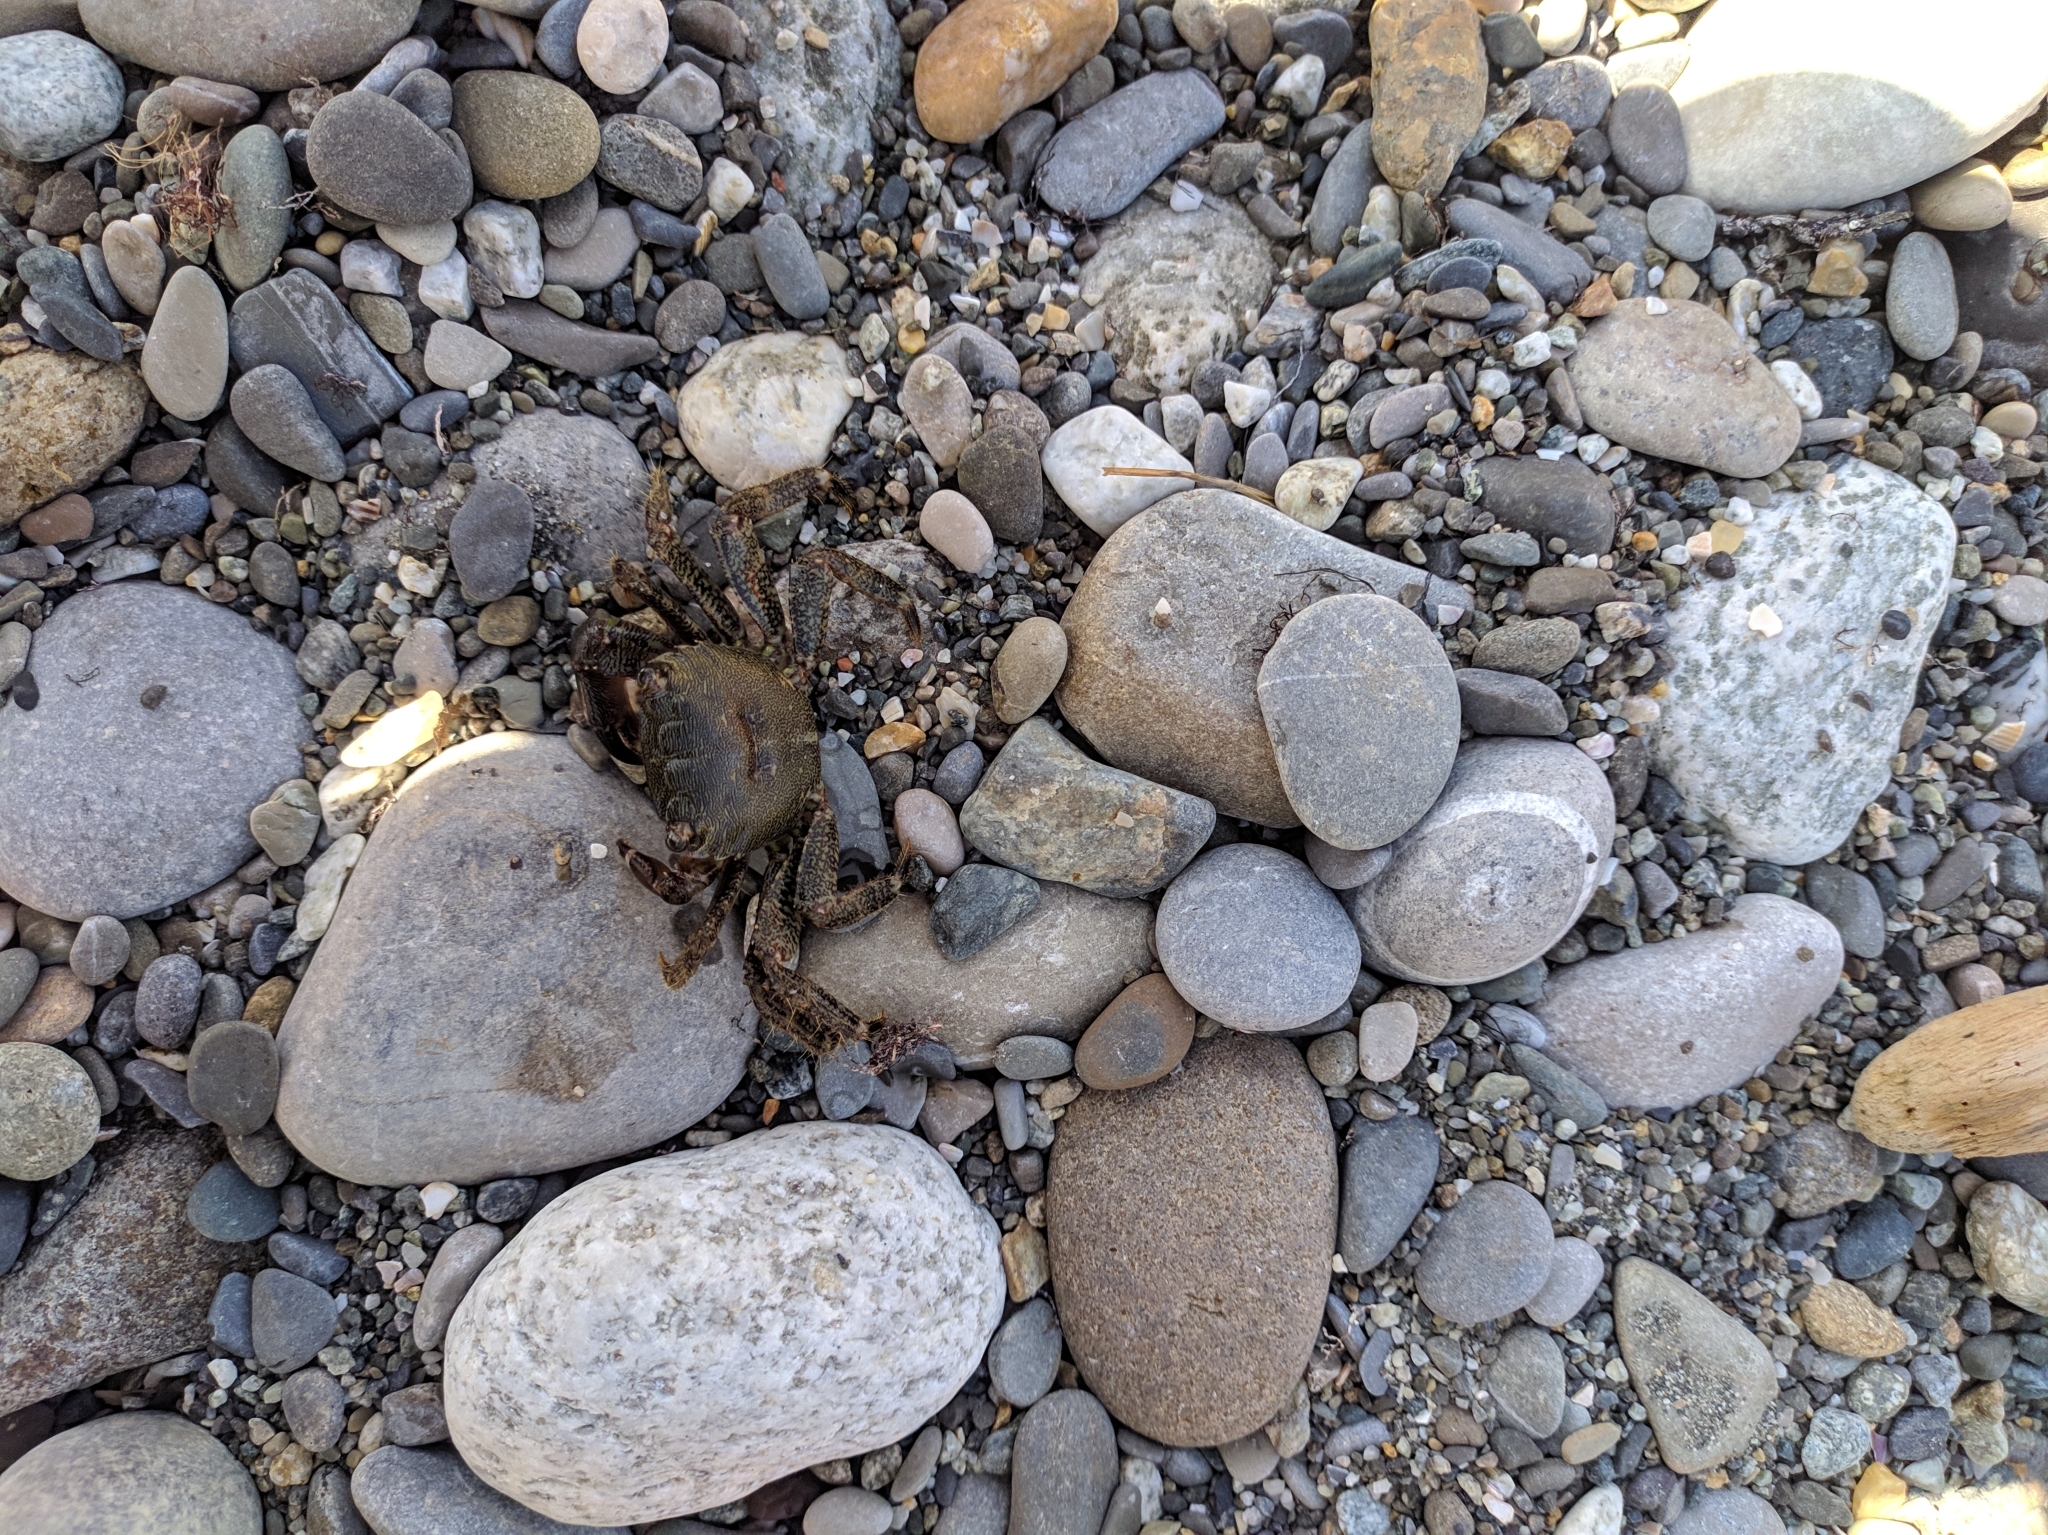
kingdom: Animalia
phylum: Arthropoda
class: Malacostraca
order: Decapoda
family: Grapsidae
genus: Pachygrapsus
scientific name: Pachygrapsus marmoratus
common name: Marbled rock crab
